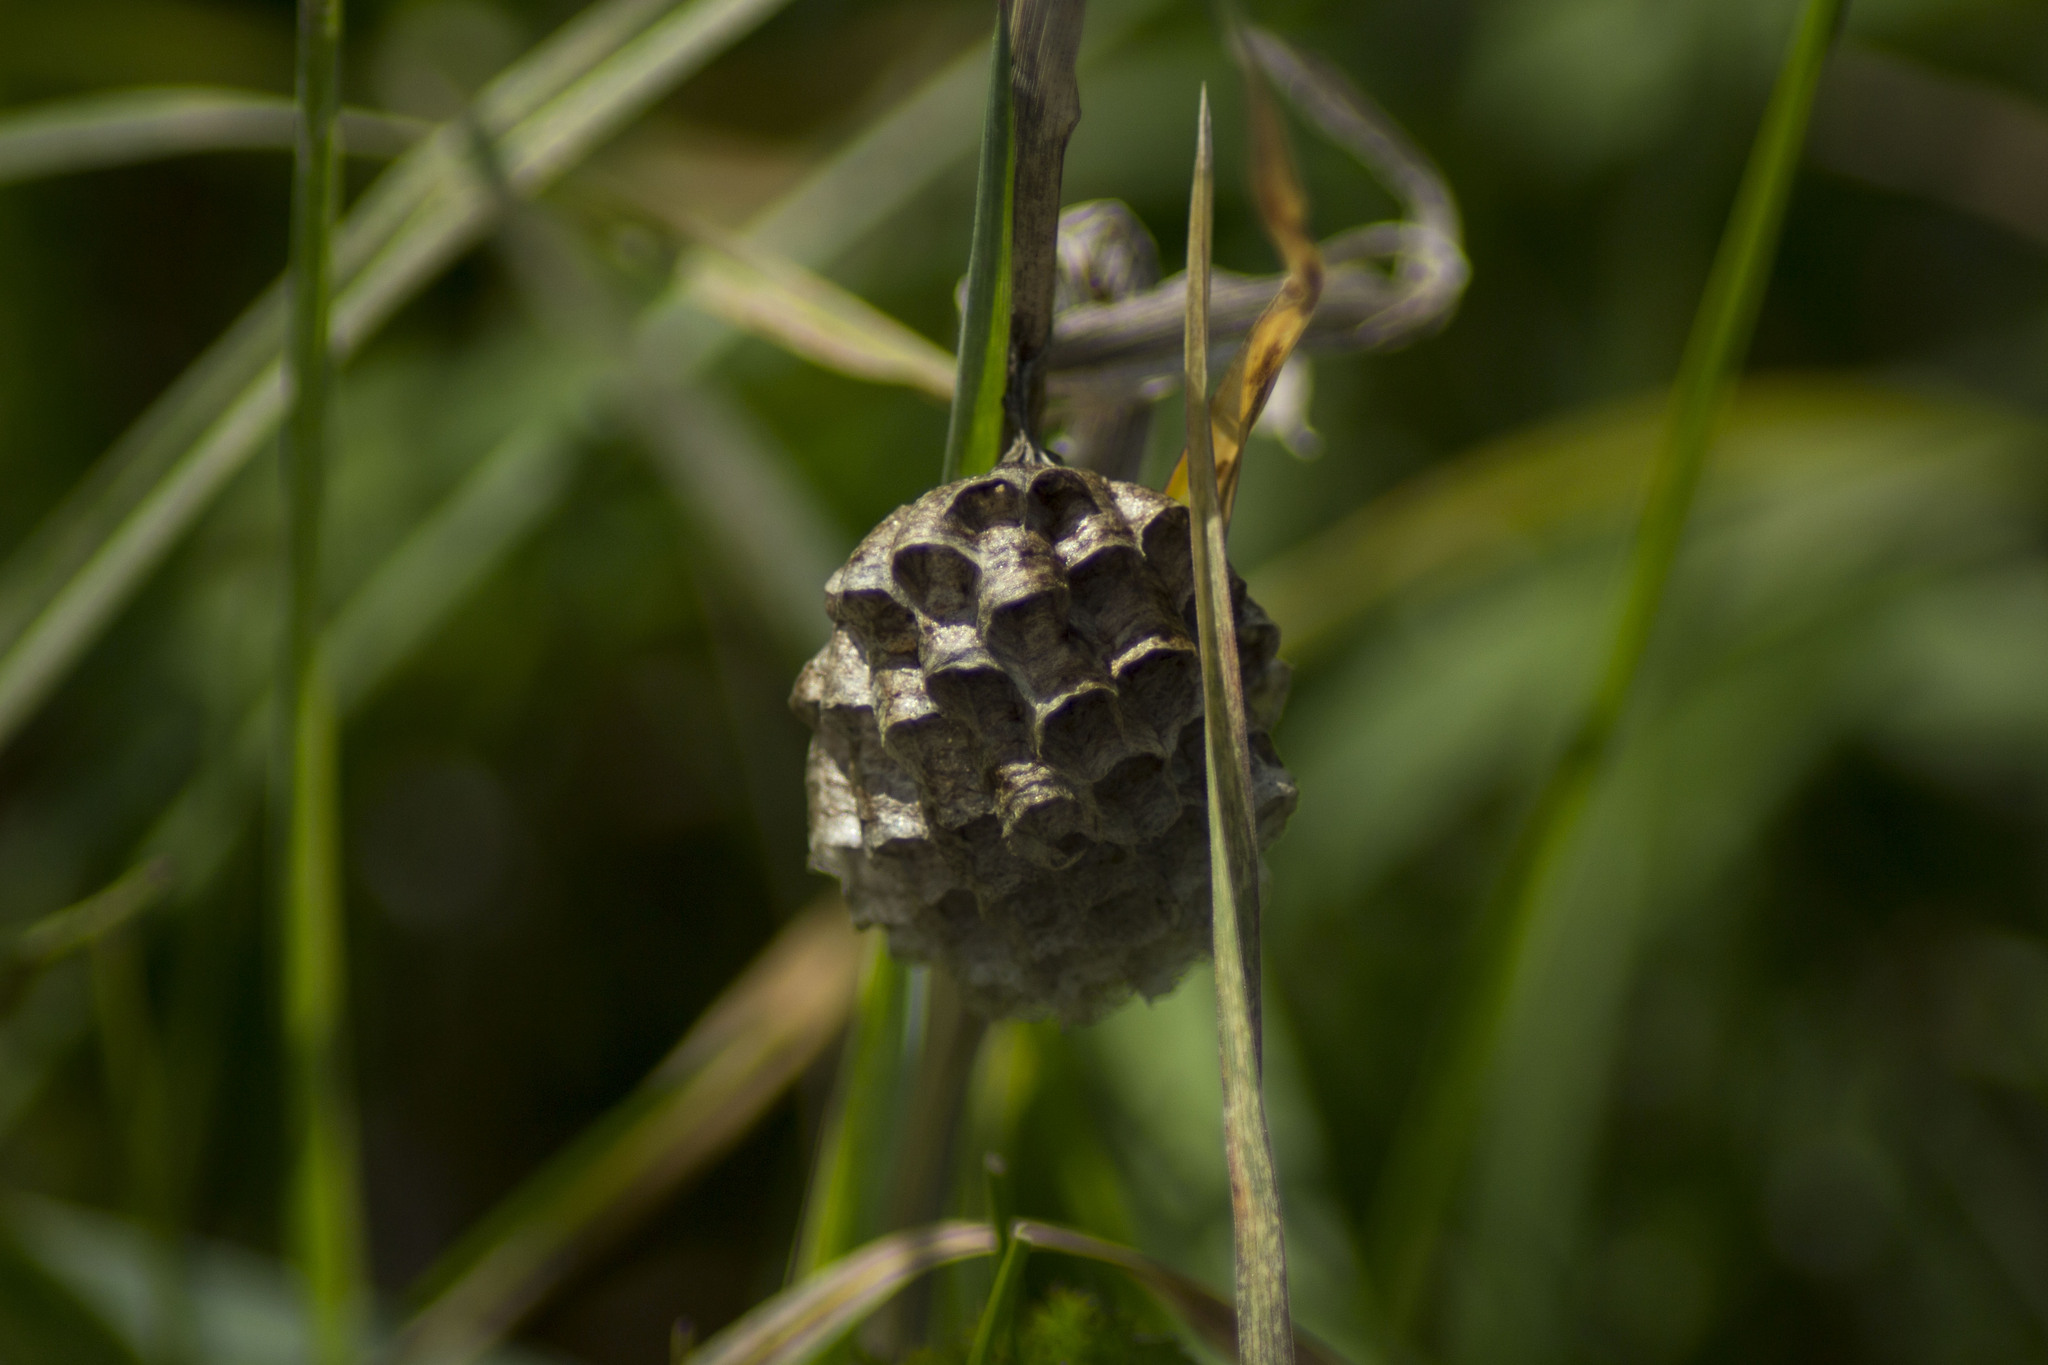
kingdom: Animalia
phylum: Arthropoda
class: Insecta
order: Hymenoptera
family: Eumenidae
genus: Polistes
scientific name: Polistes
